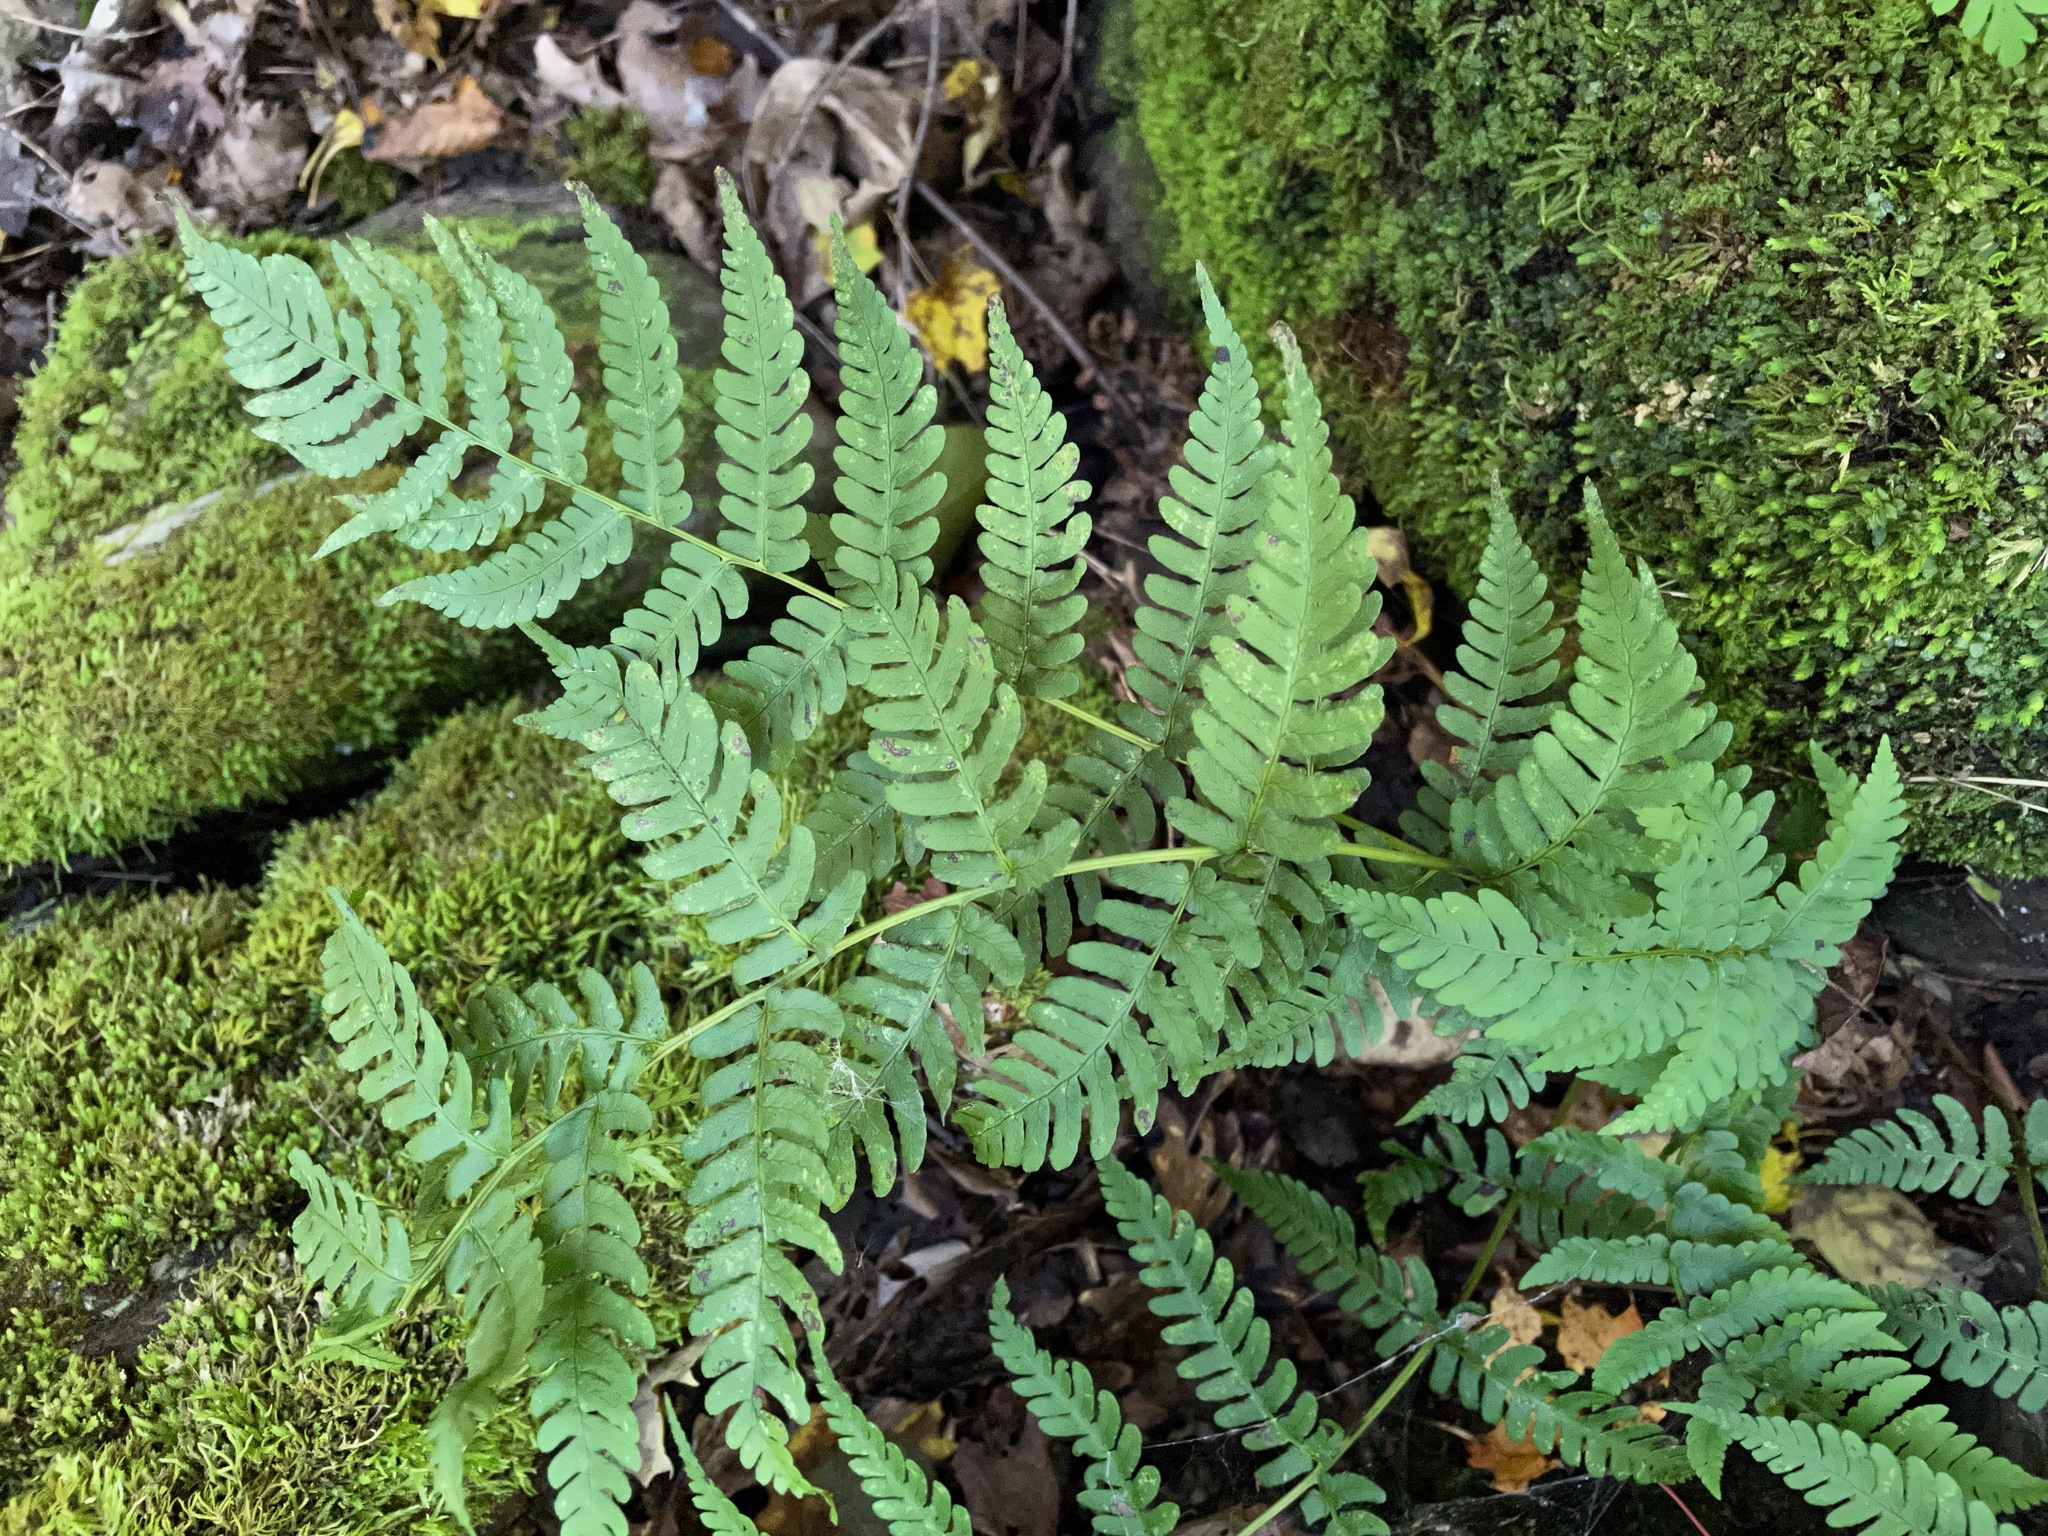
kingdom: Plantae
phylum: Tracheophyta
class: Polypodiopsida
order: Polypodiales
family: Dryopteridaceae
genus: Dryopteris
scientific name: Dryopteris marginalis
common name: Marginal wood fern
